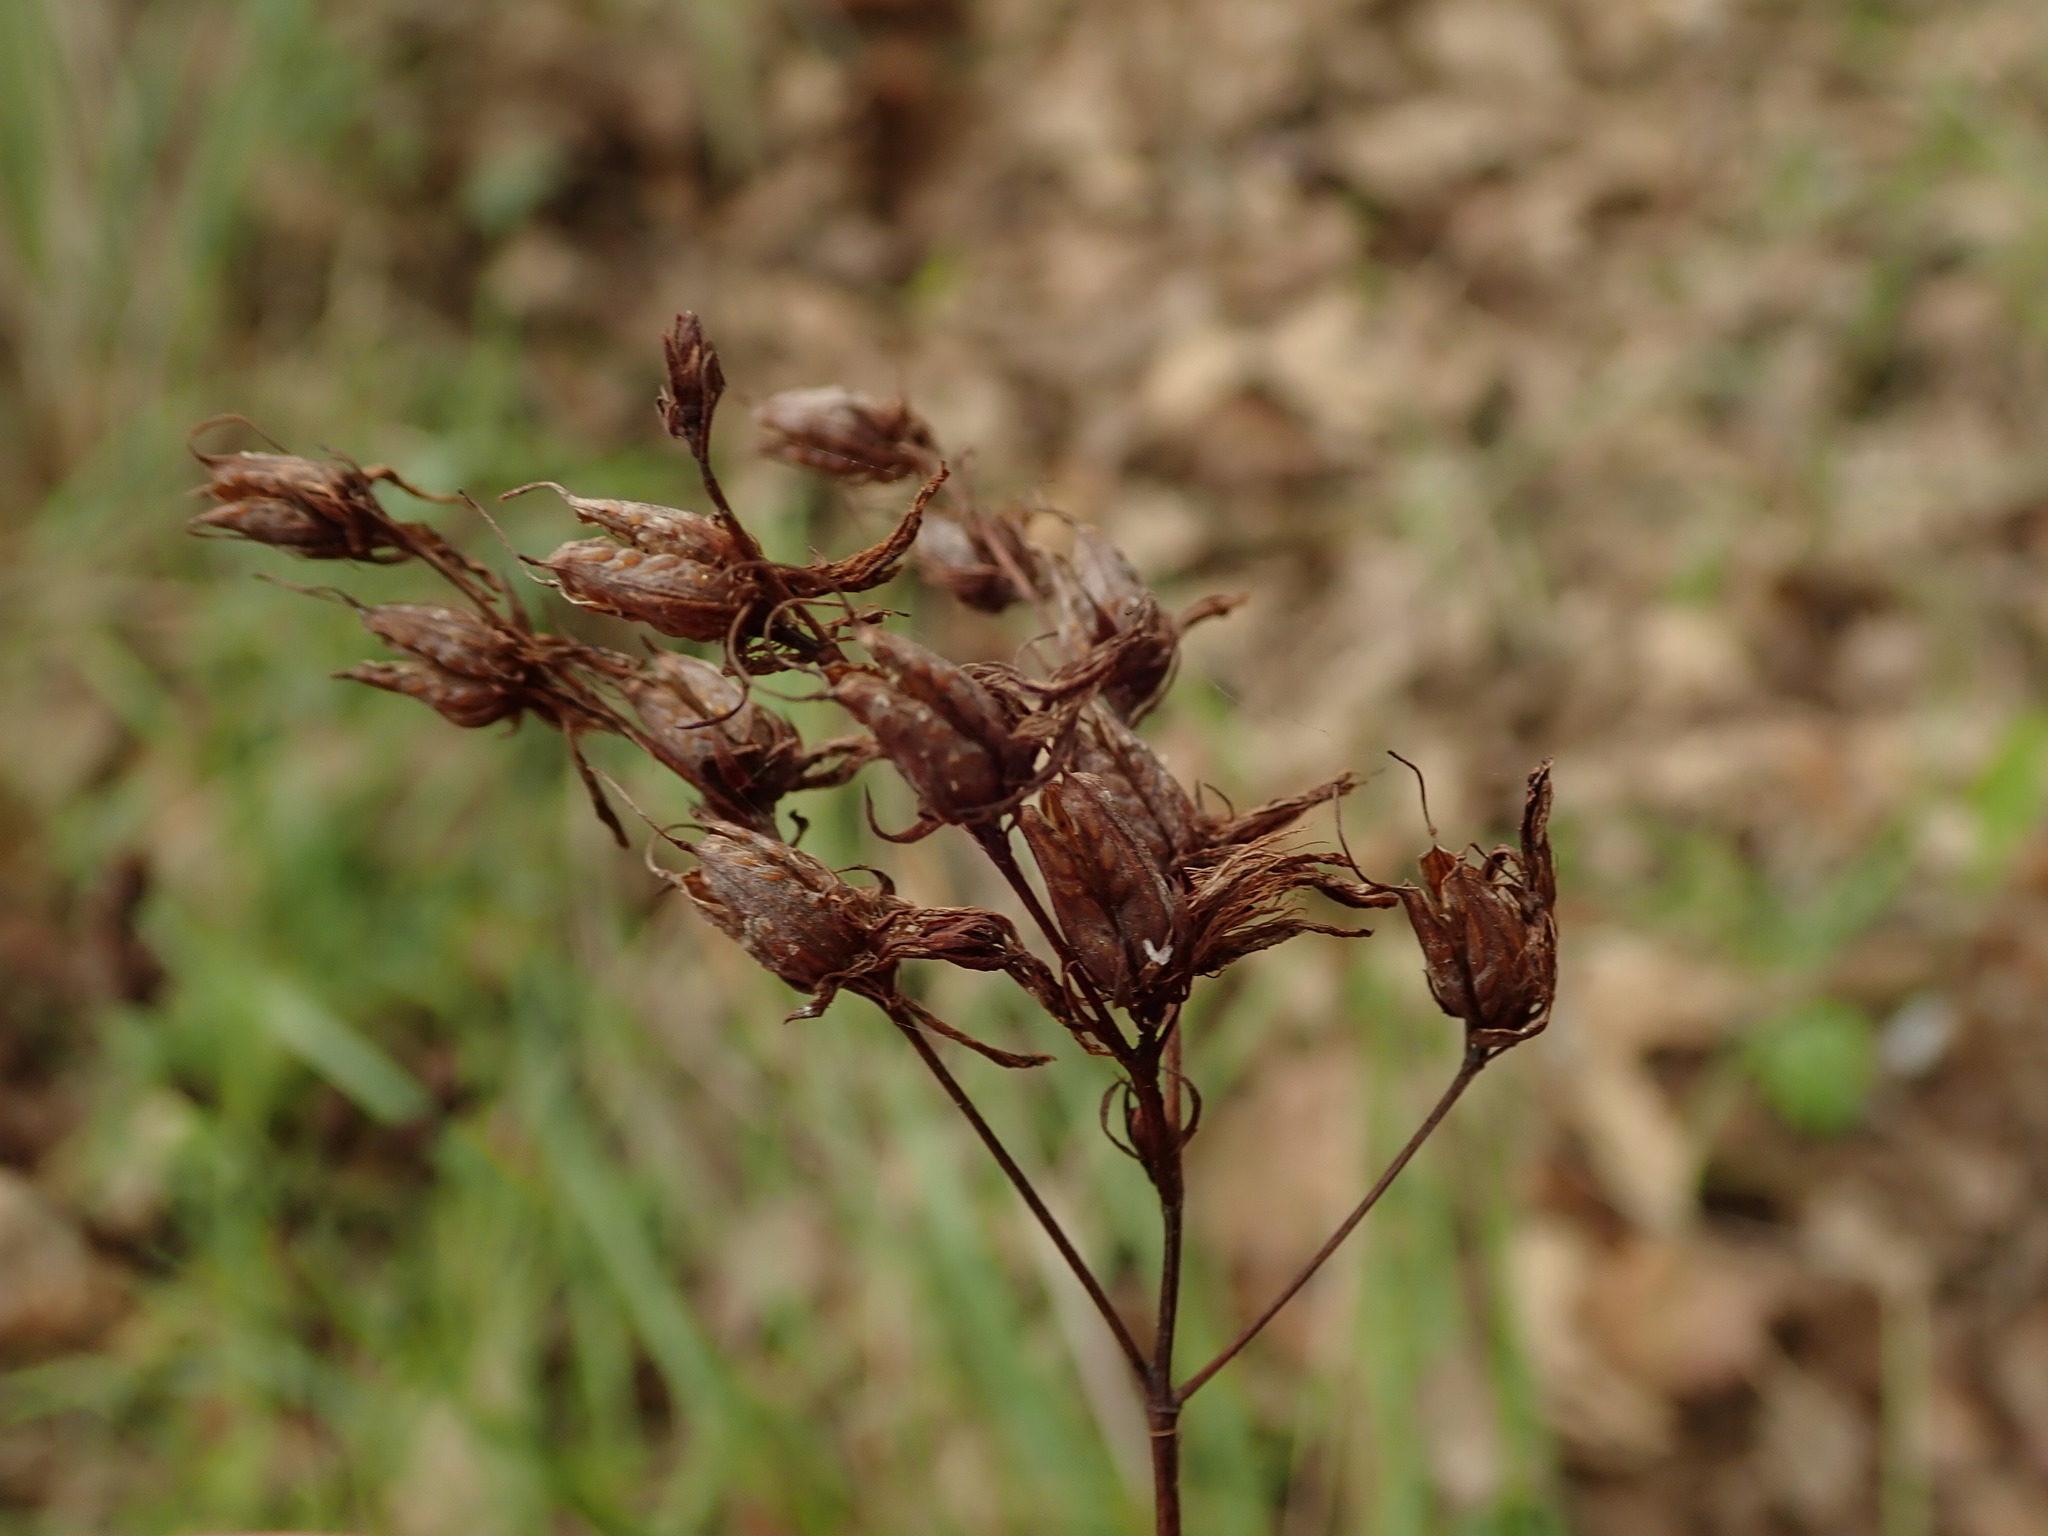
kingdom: Plantae
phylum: Tracheophyta
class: Magnoliopsida
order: Malpighiales
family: Hypericaceae
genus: Hypericum
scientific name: Hypericum perforatum
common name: Common st. johnswort
